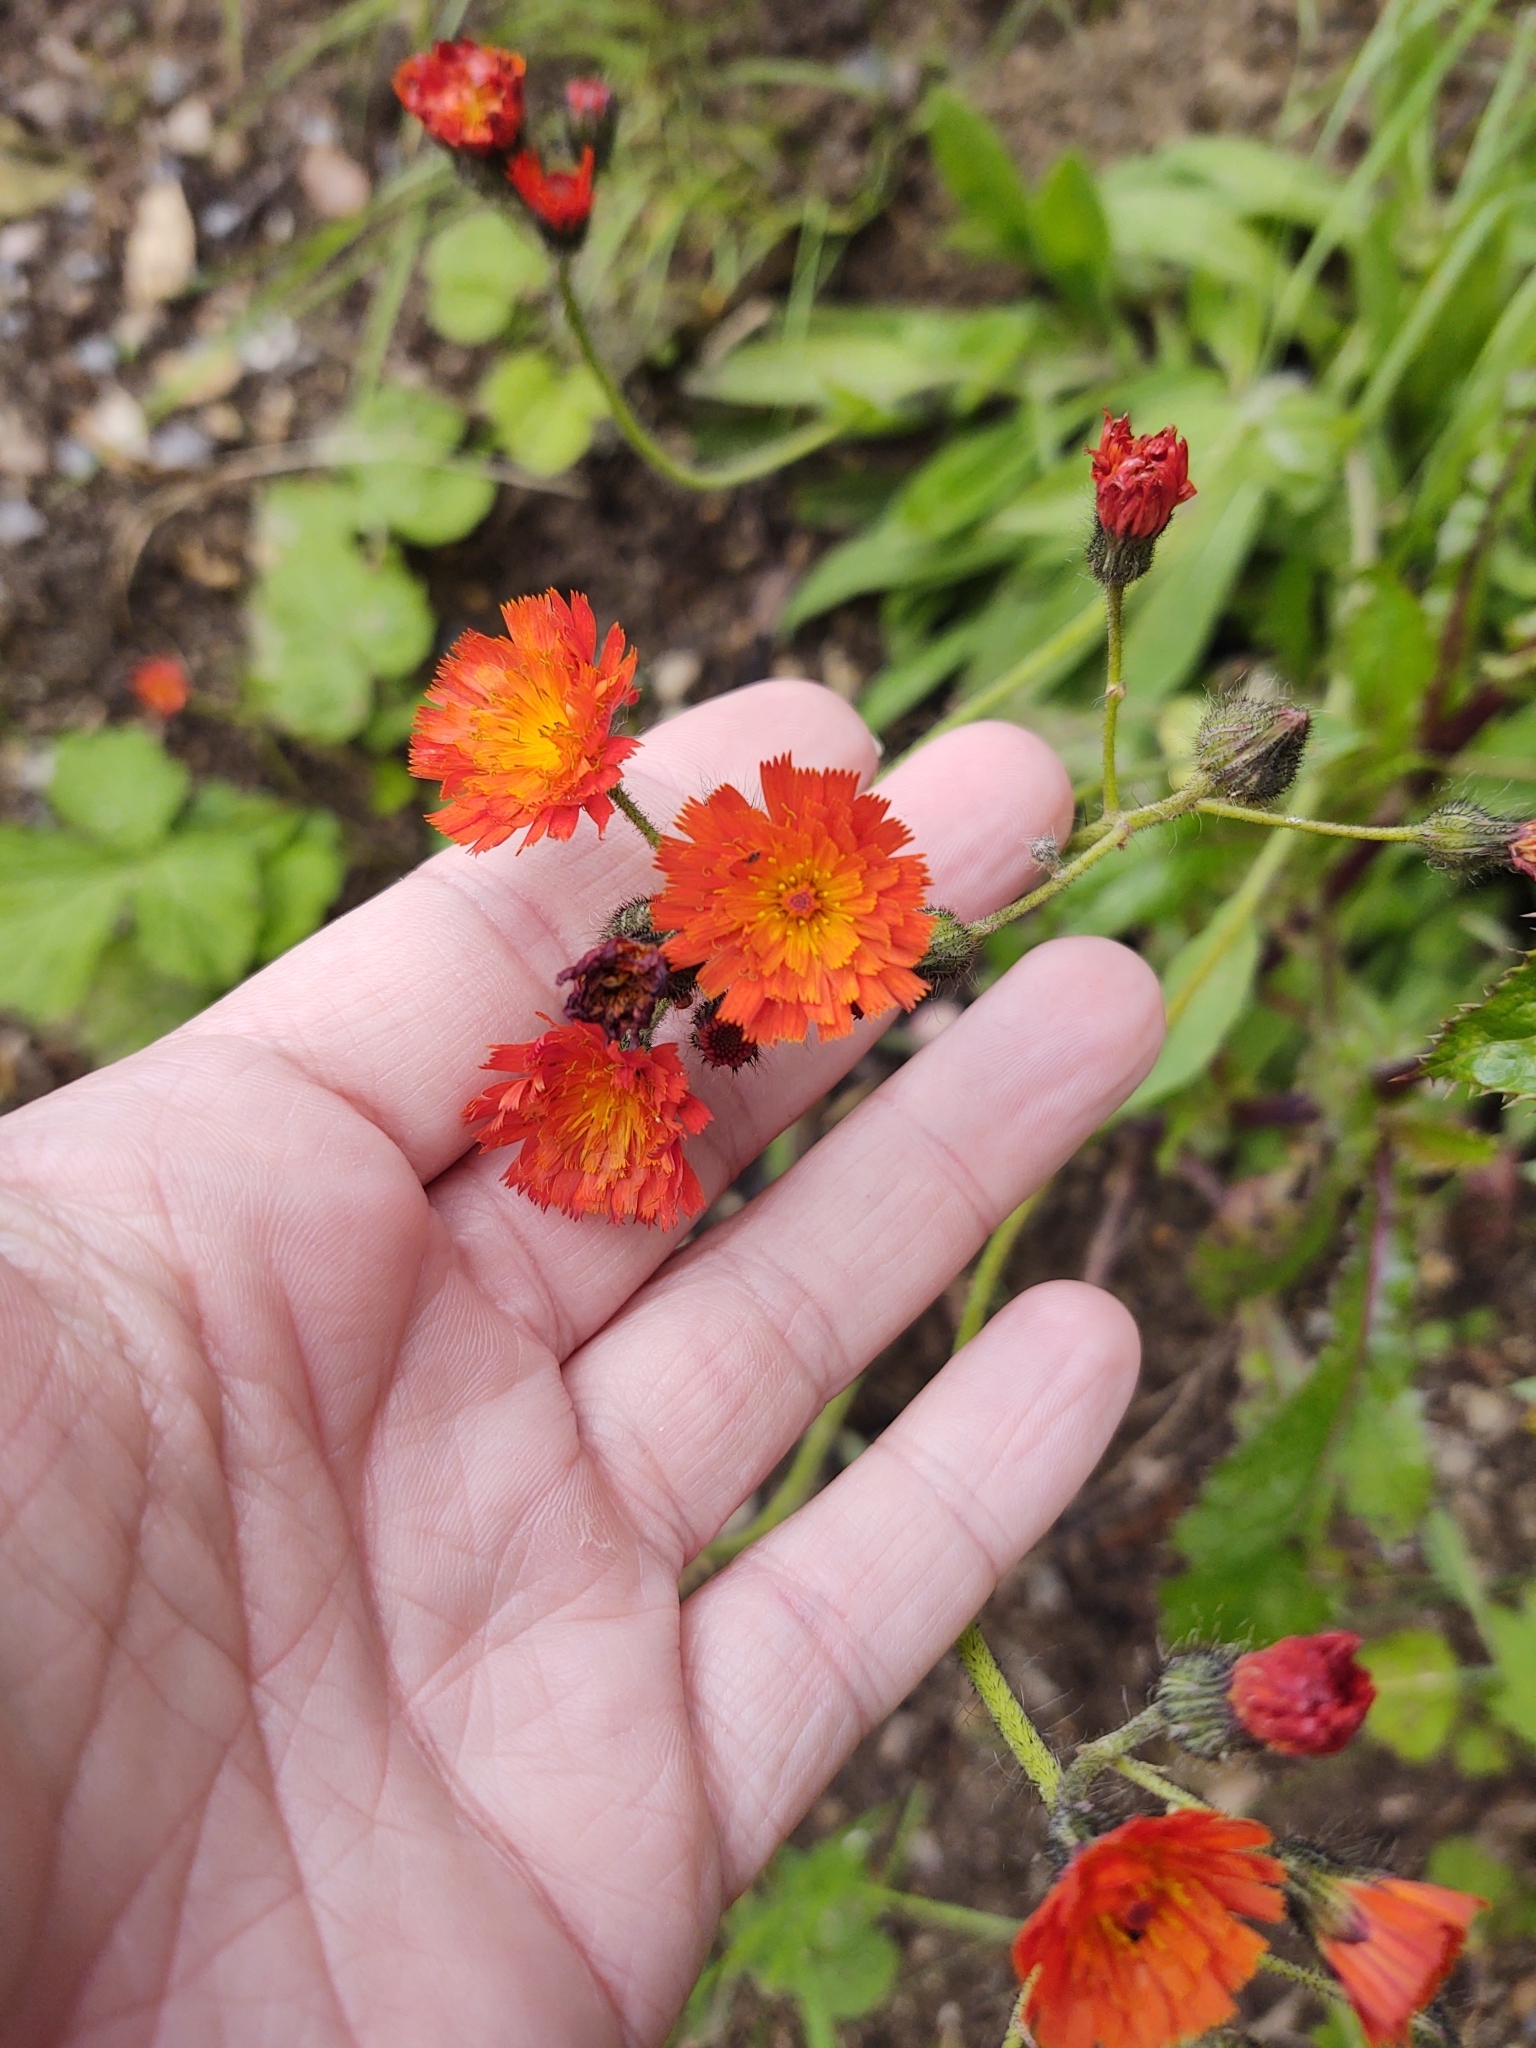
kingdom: Plantae
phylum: Tracheophyta
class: Magnoliopsida
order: Asterales
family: Asteraceae
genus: Pilosella
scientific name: Pilosella aurantiaca
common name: Fox-and-cubs
